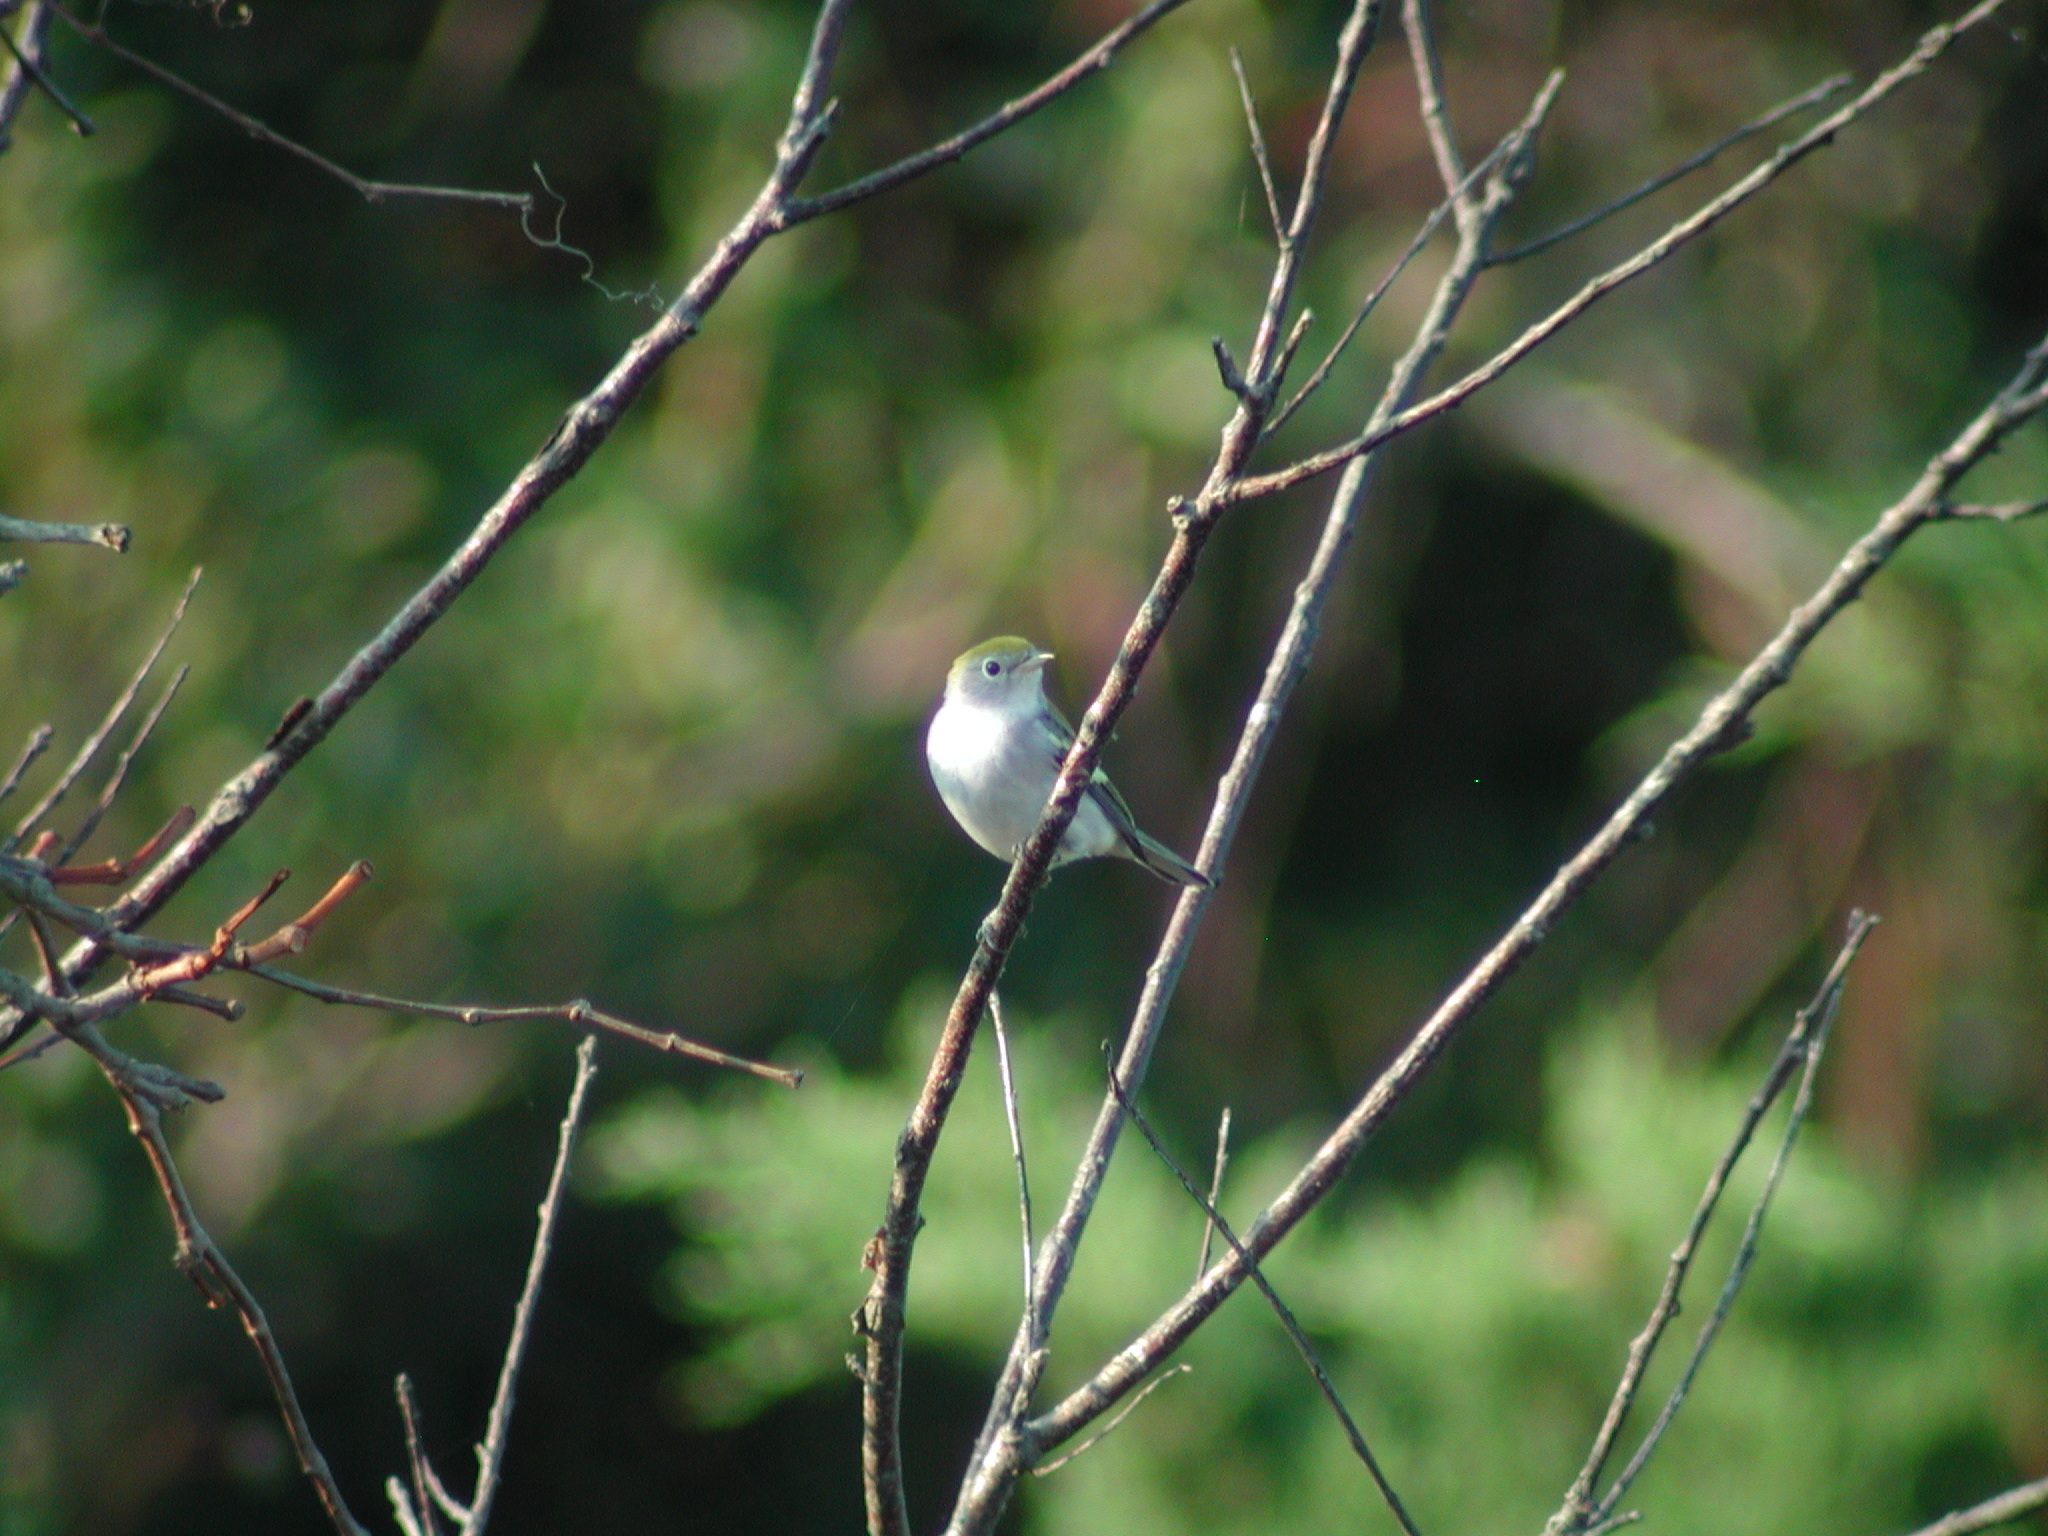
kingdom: Animalia
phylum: Chordata
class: Aves
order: Passeriformes
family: Parulidae
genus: Setophaga
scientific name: Setophaga pensylvanica
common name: Chestnut-sided warbler
